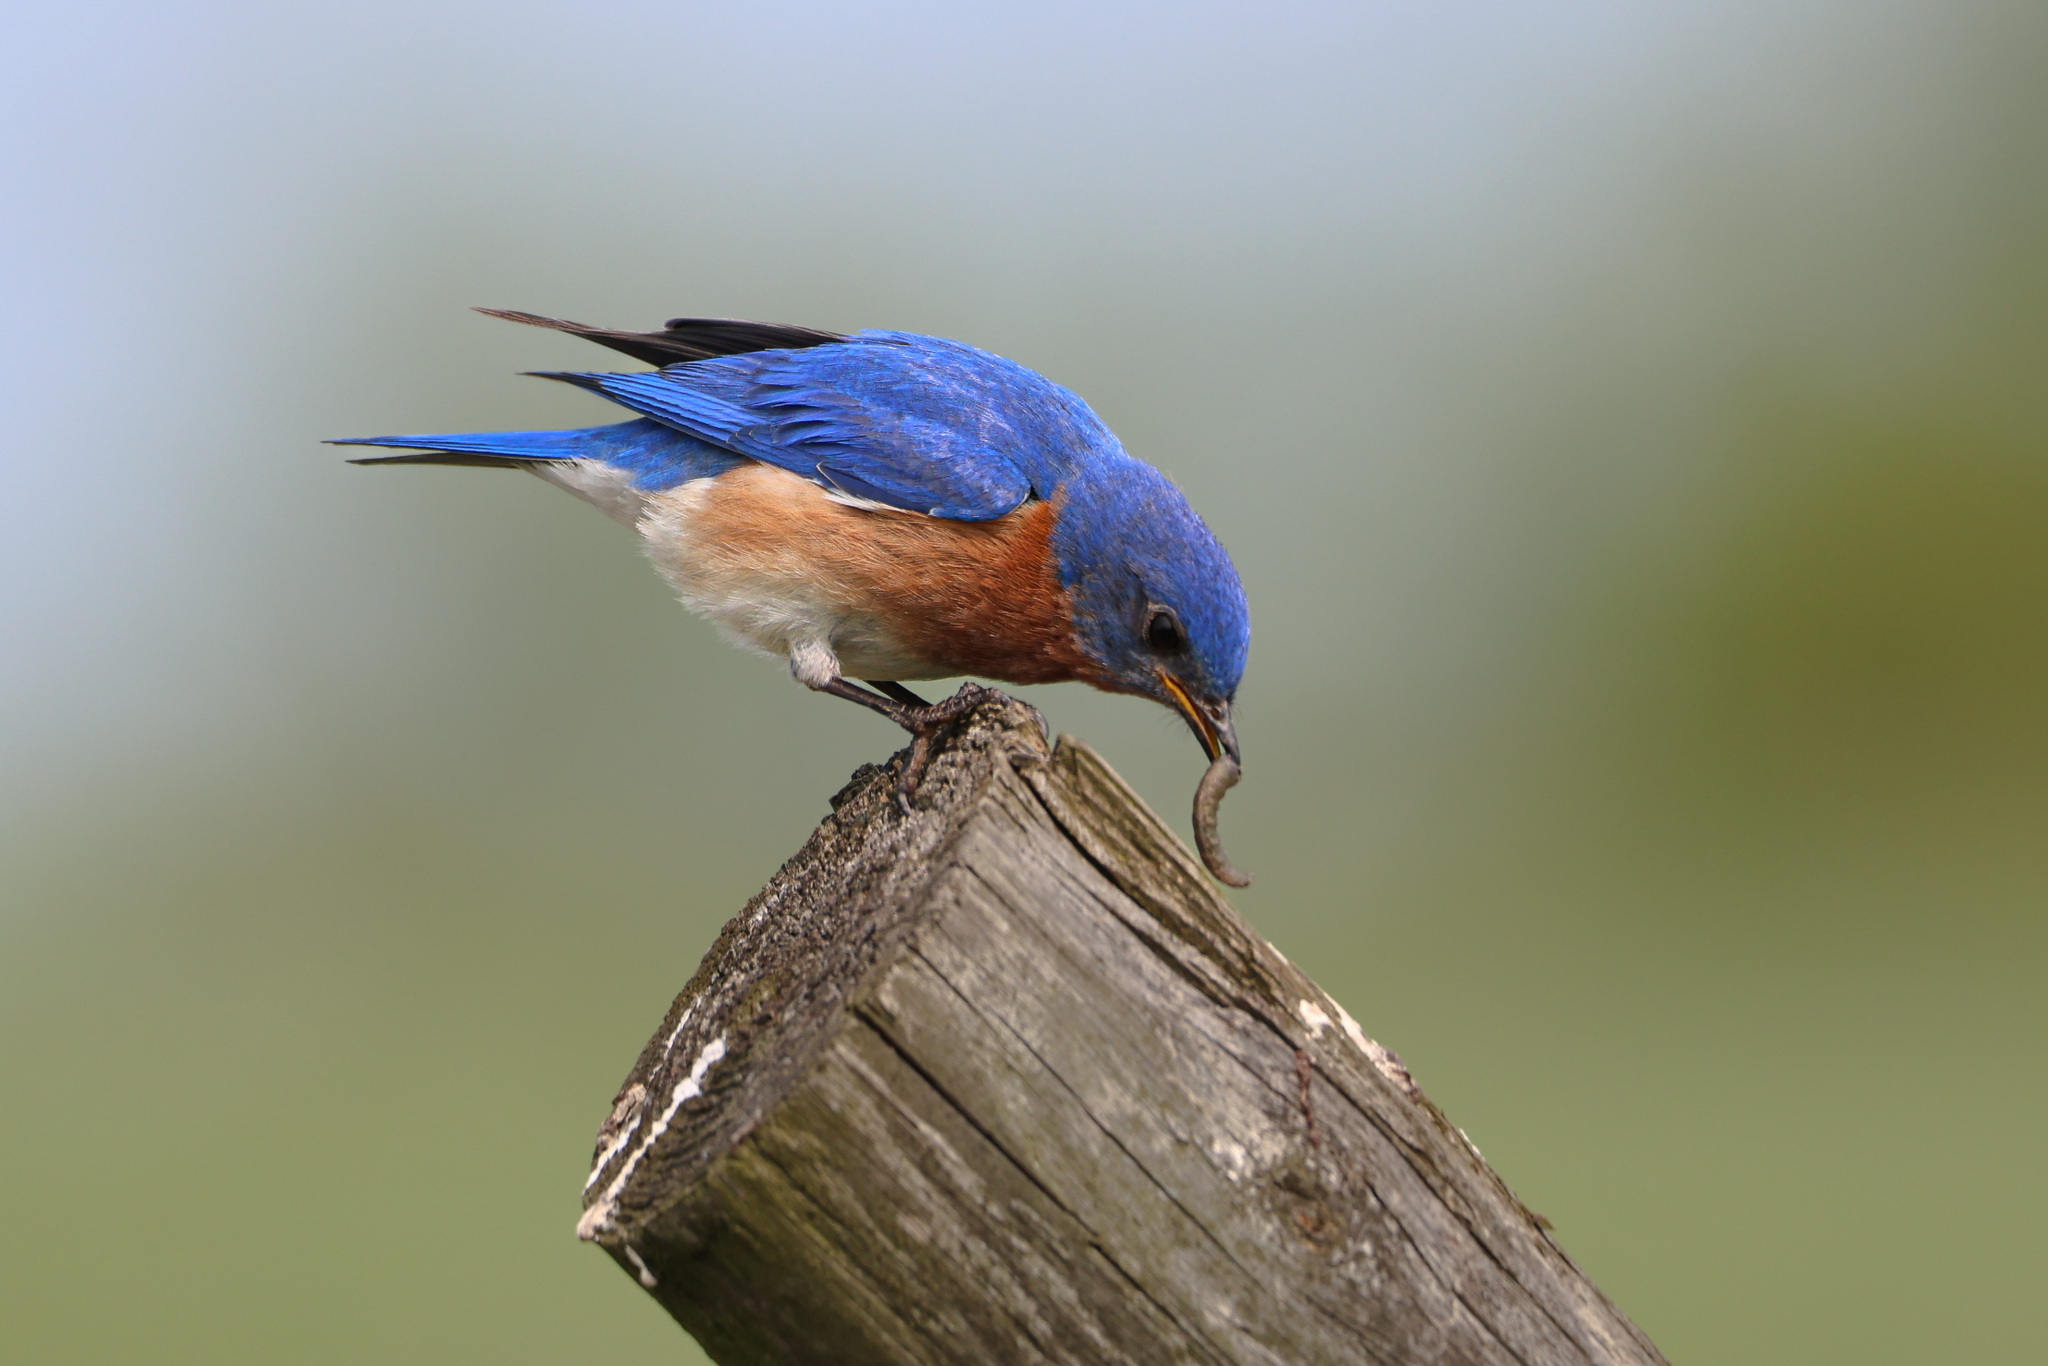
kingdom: Animalia
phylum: Chordata
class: Aves
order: Passeriformes
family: Turdidae
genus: Sialia
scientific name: Sialia sialis
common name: Eastern bluebird
